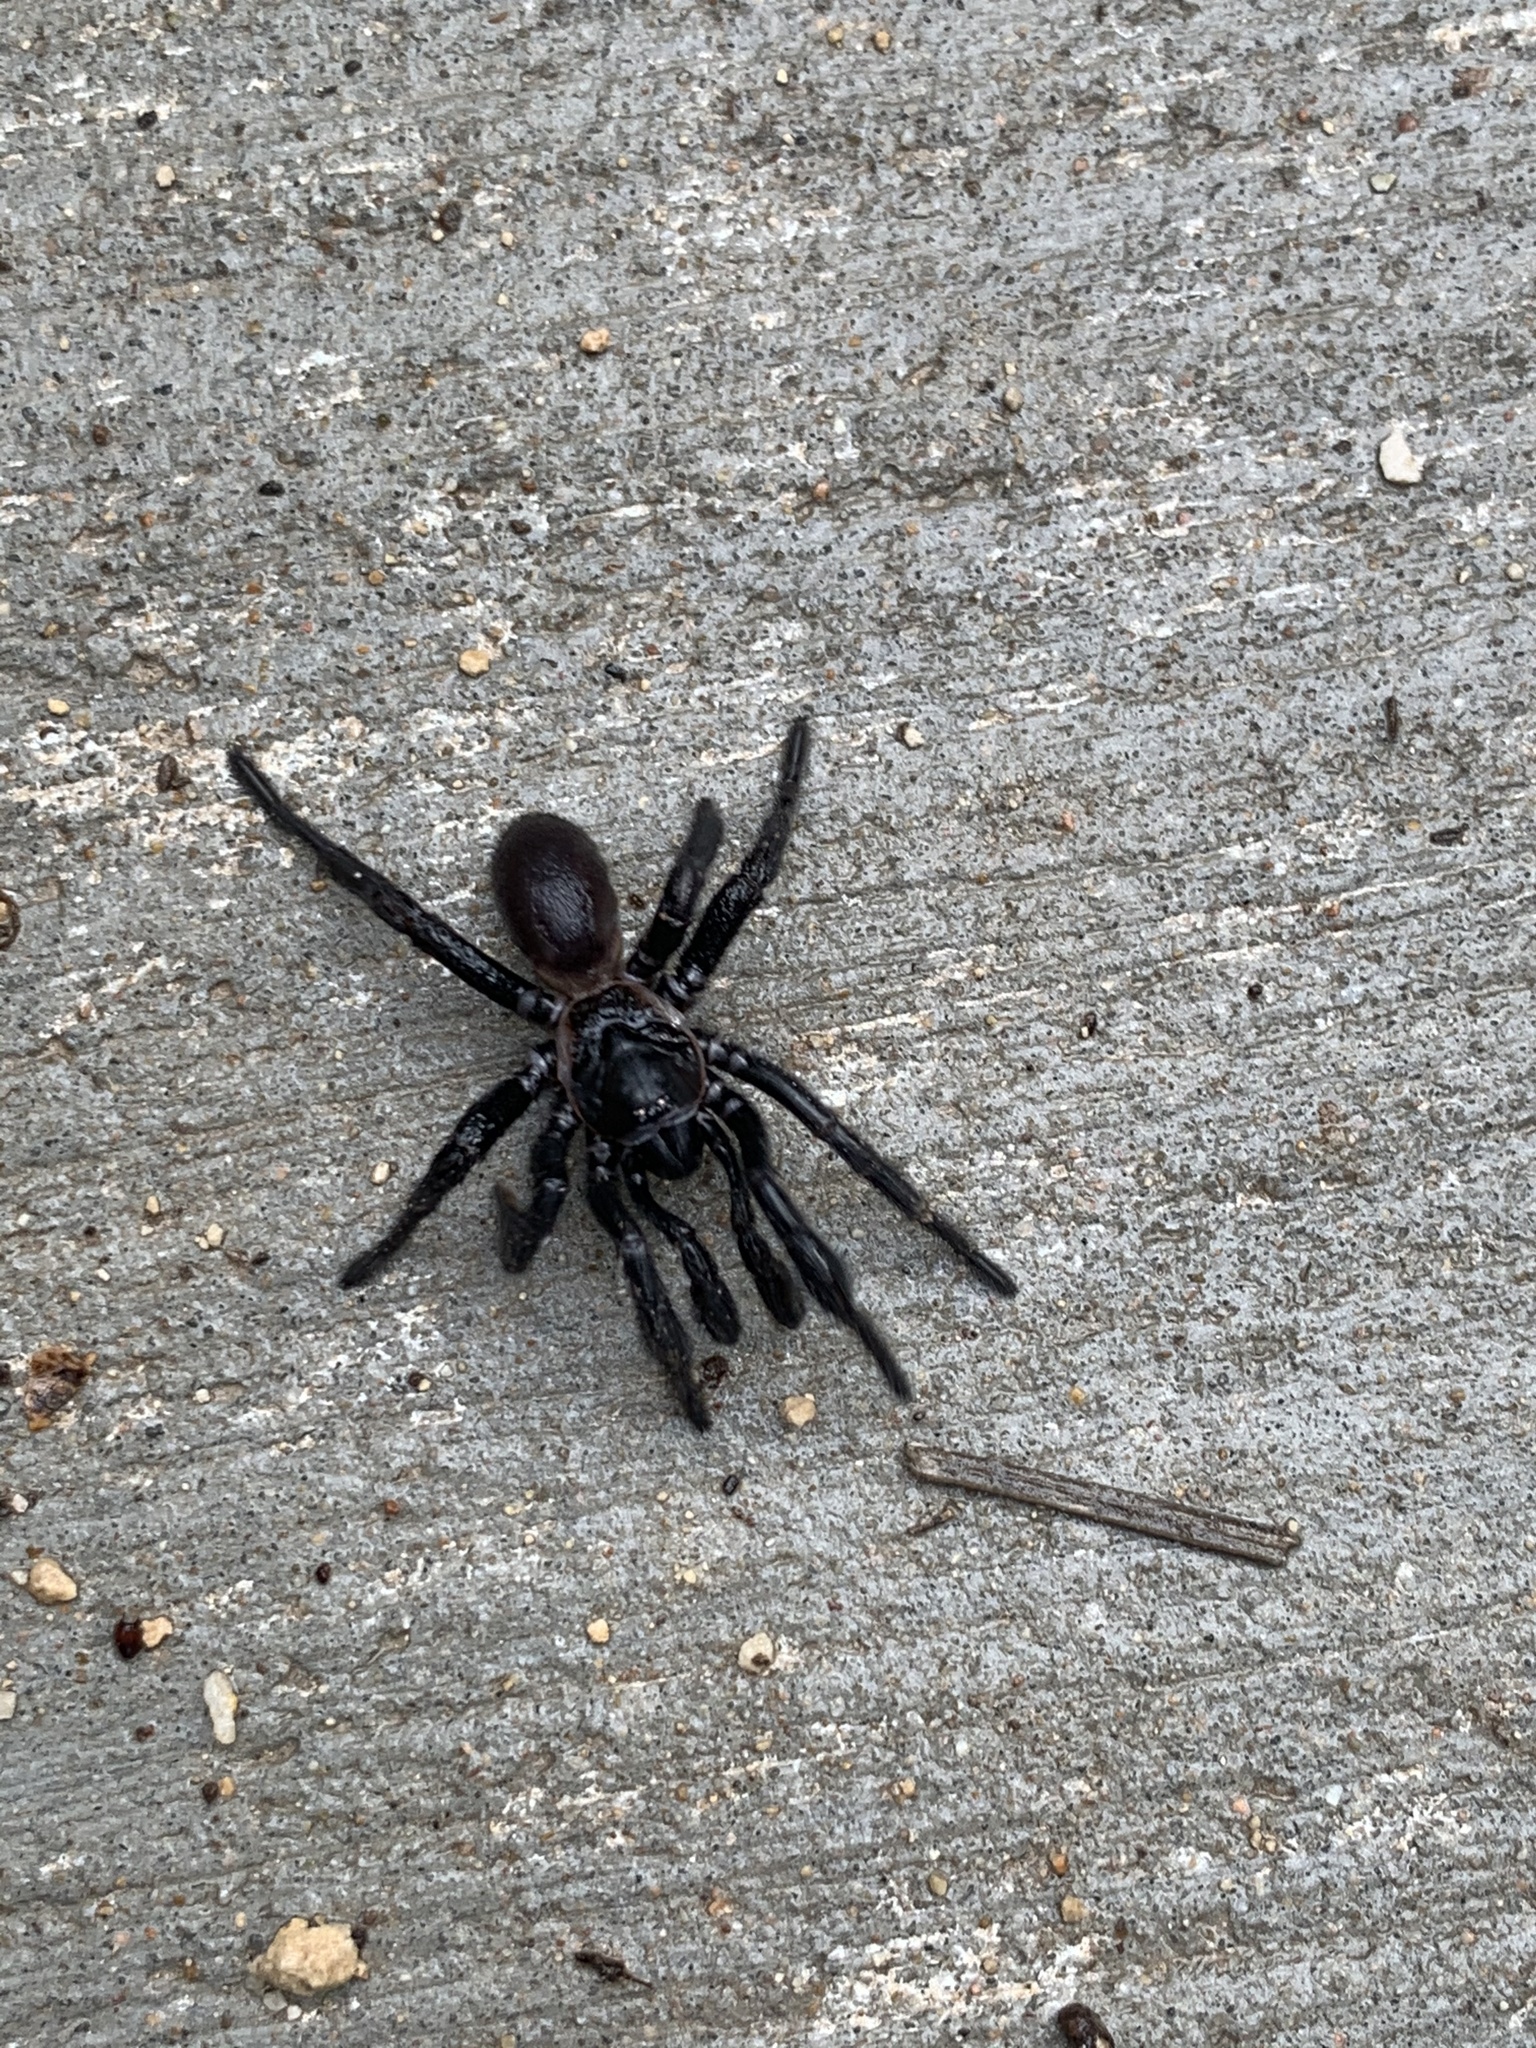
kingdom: Animalia
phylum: Arthropoda
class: Arachnida
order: Araneae
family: Euctenizidae
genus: Eucteniza
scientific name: Eucteniza relata
